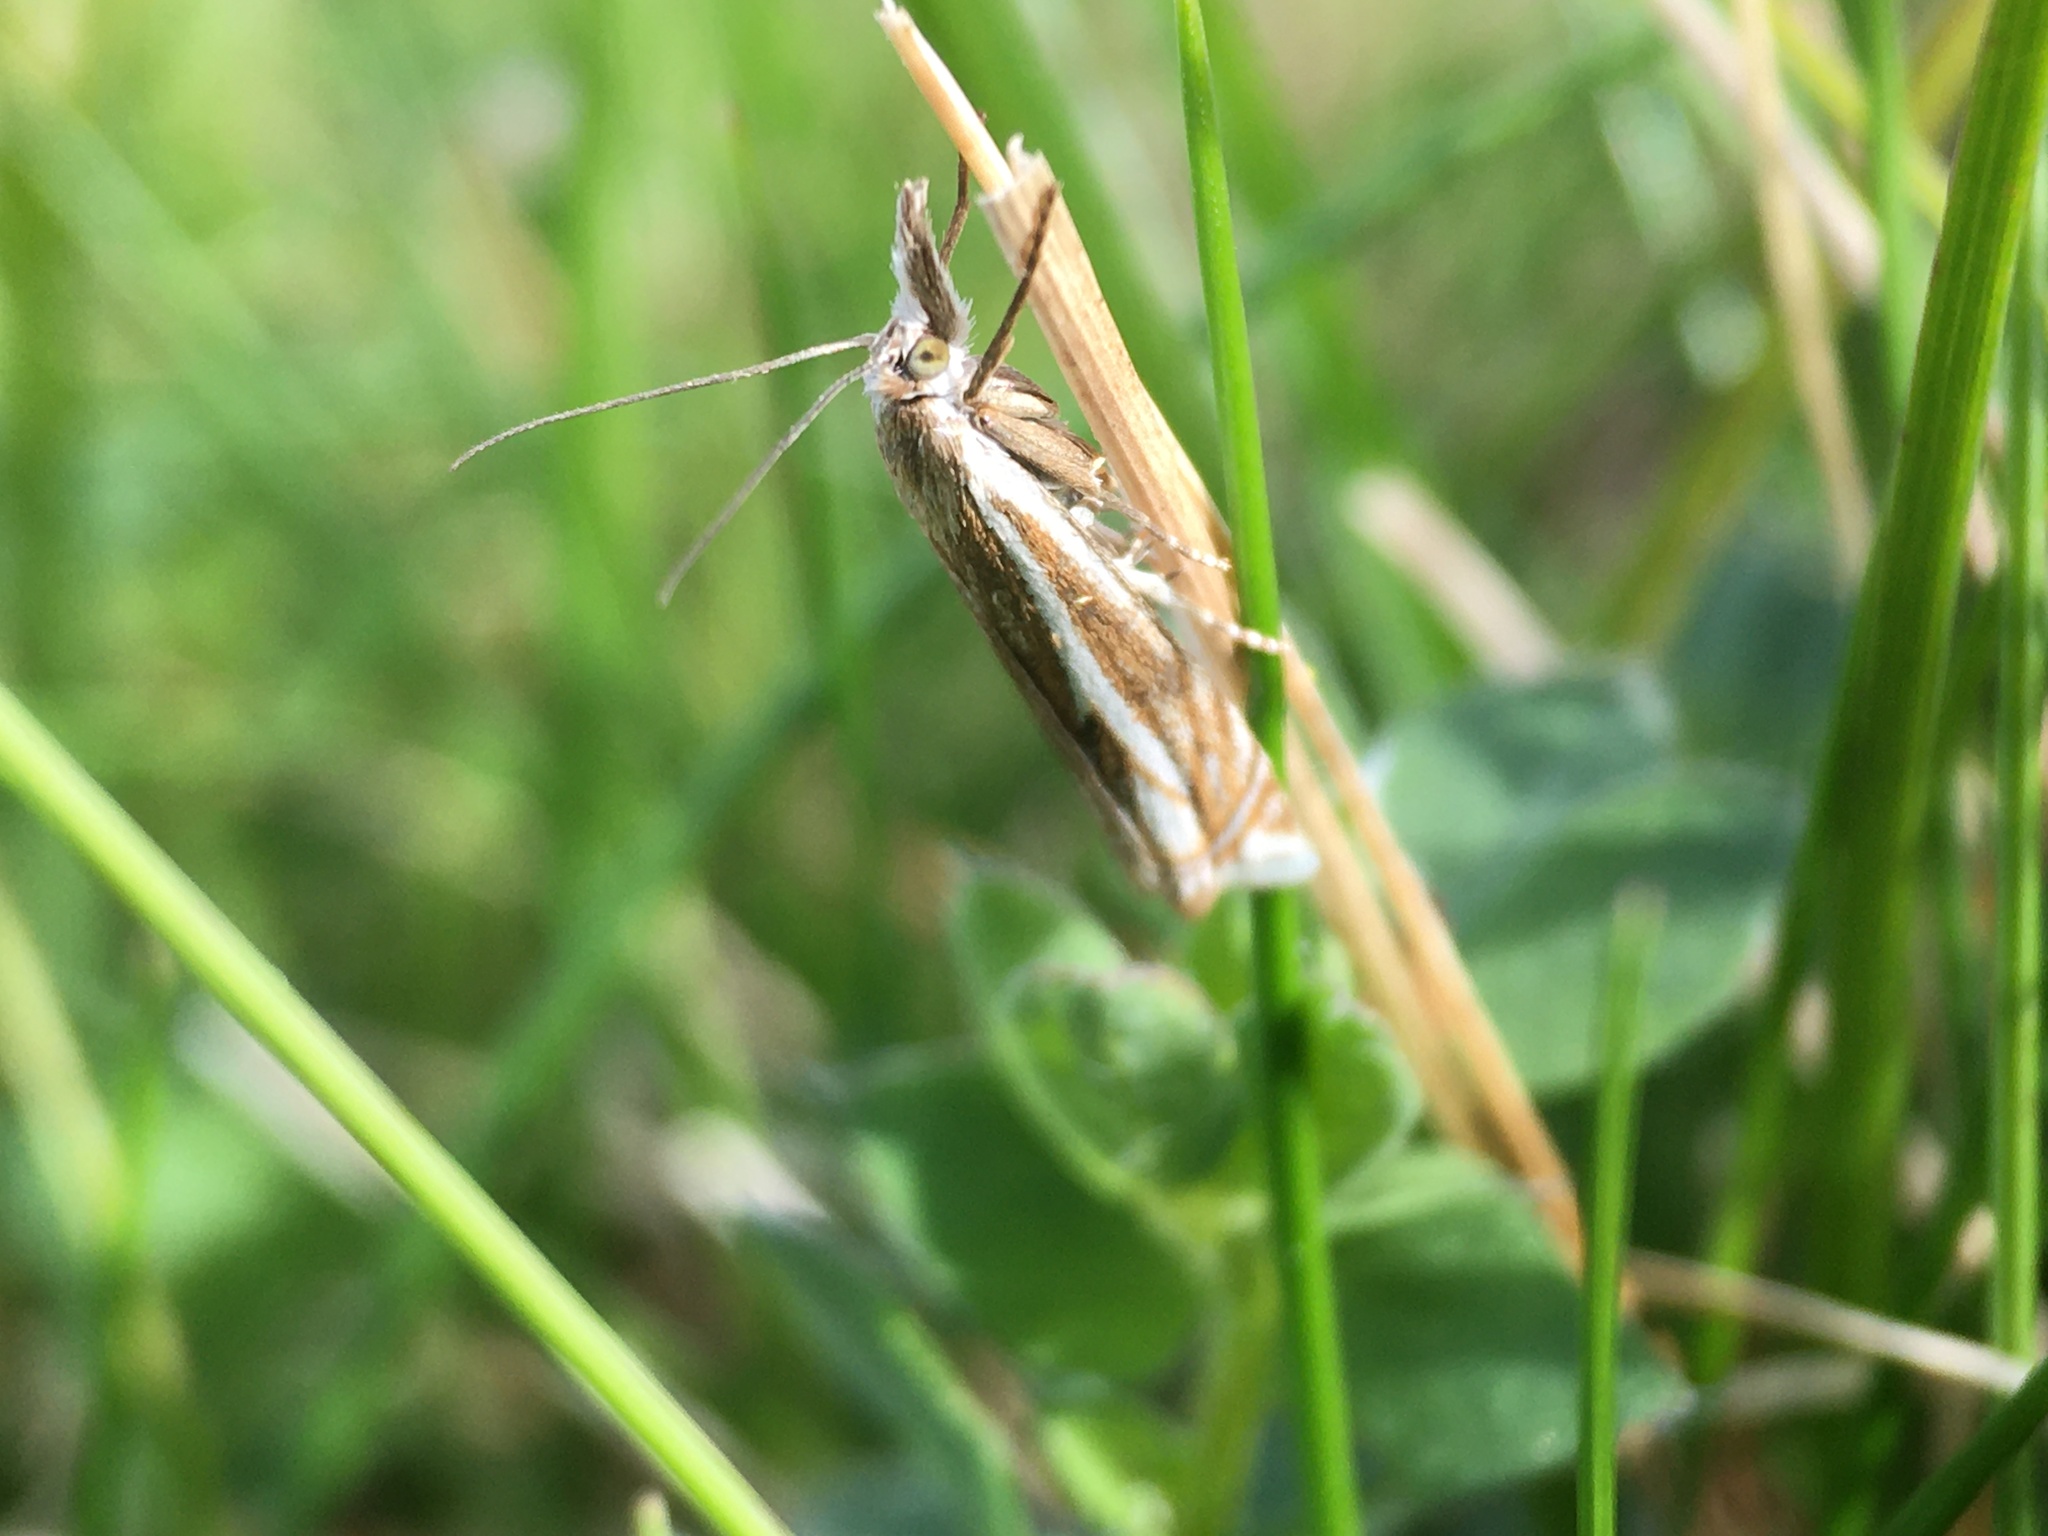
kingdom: Animalia
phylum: Arthropoda
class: Insecta
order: Lepidoptera
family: Crambidae
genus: Crambus
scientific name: Crambus nemorella
